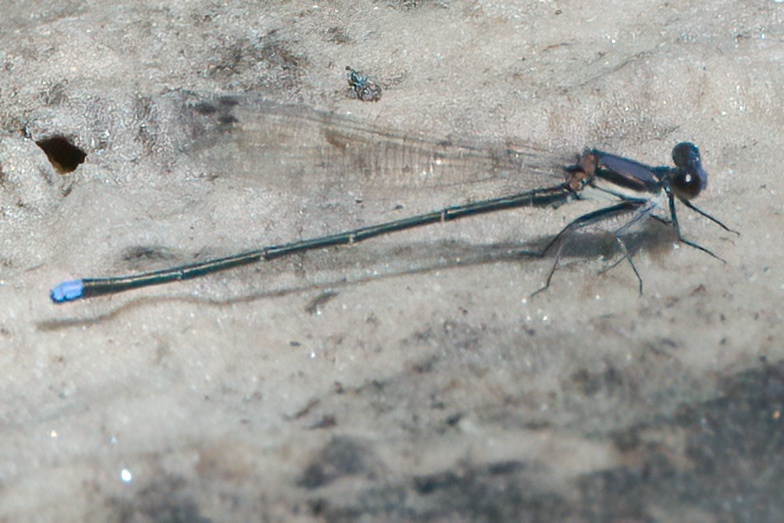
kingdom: Animalia
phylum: Arthropoda
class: Insecta
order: Odonata
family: Coenagrionidae
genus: Argia
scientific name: Argia tibialis
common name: Blue-tipped dancer
